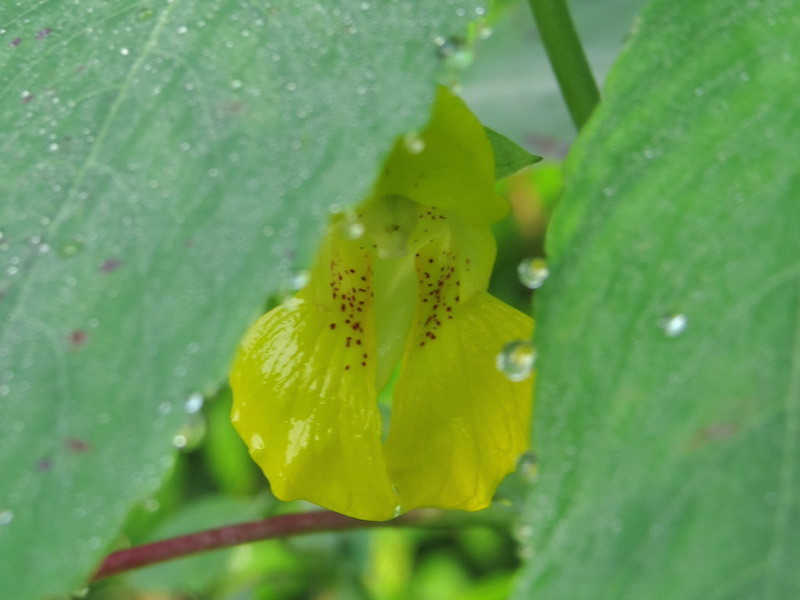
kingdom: Plantae
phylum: Tracheophyta
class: Magnoliopsida
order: Ericales
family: Balsaminaceae
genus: Impatiens
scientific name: Impatiens pallida
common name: Pale snapweed
